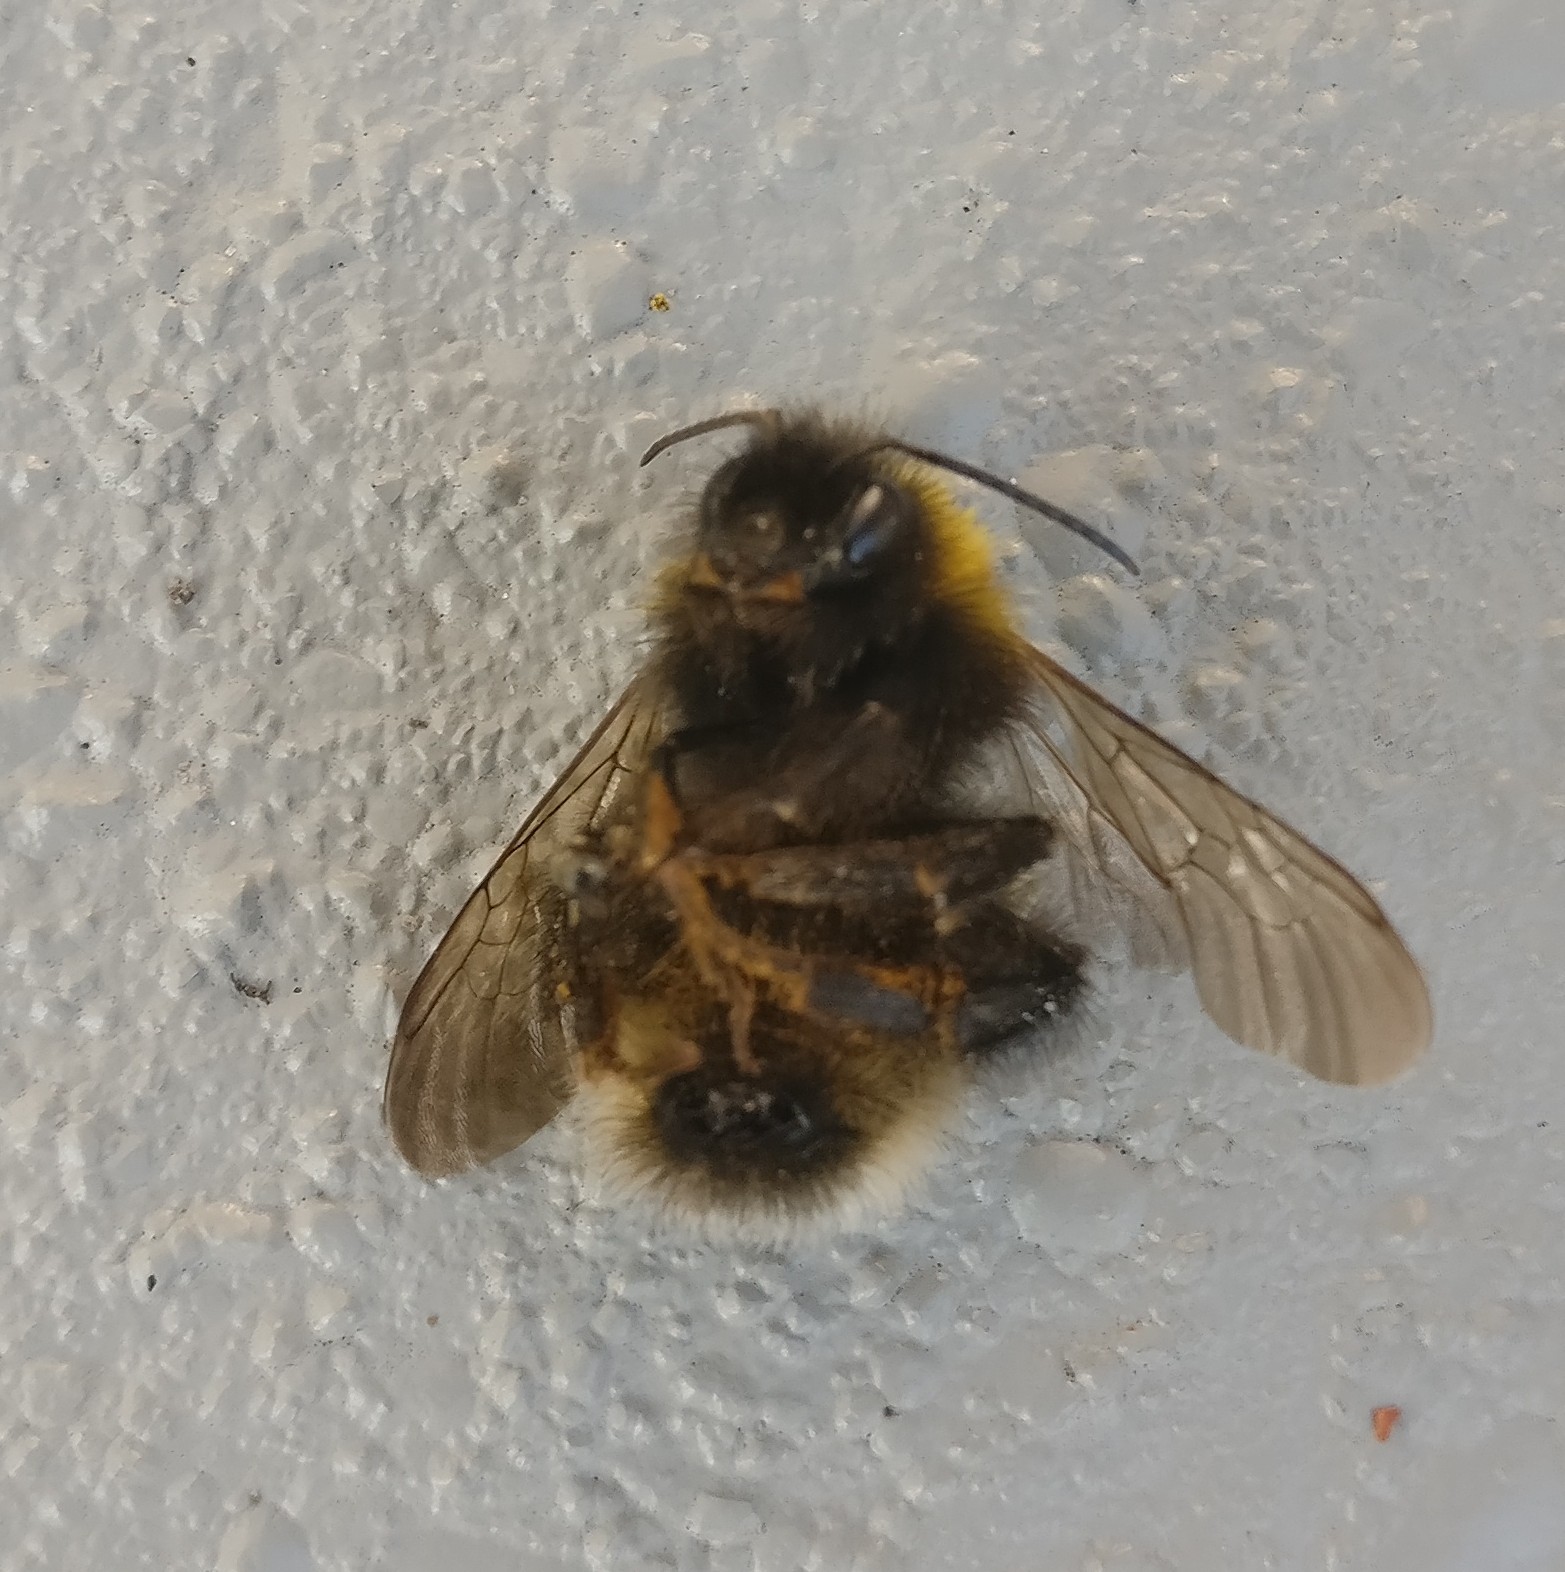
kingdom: Animalia
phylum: Arthropoda
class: Insecta
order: Hymenoptera
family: Apidae
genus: Megabombus
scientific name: Megabombus
